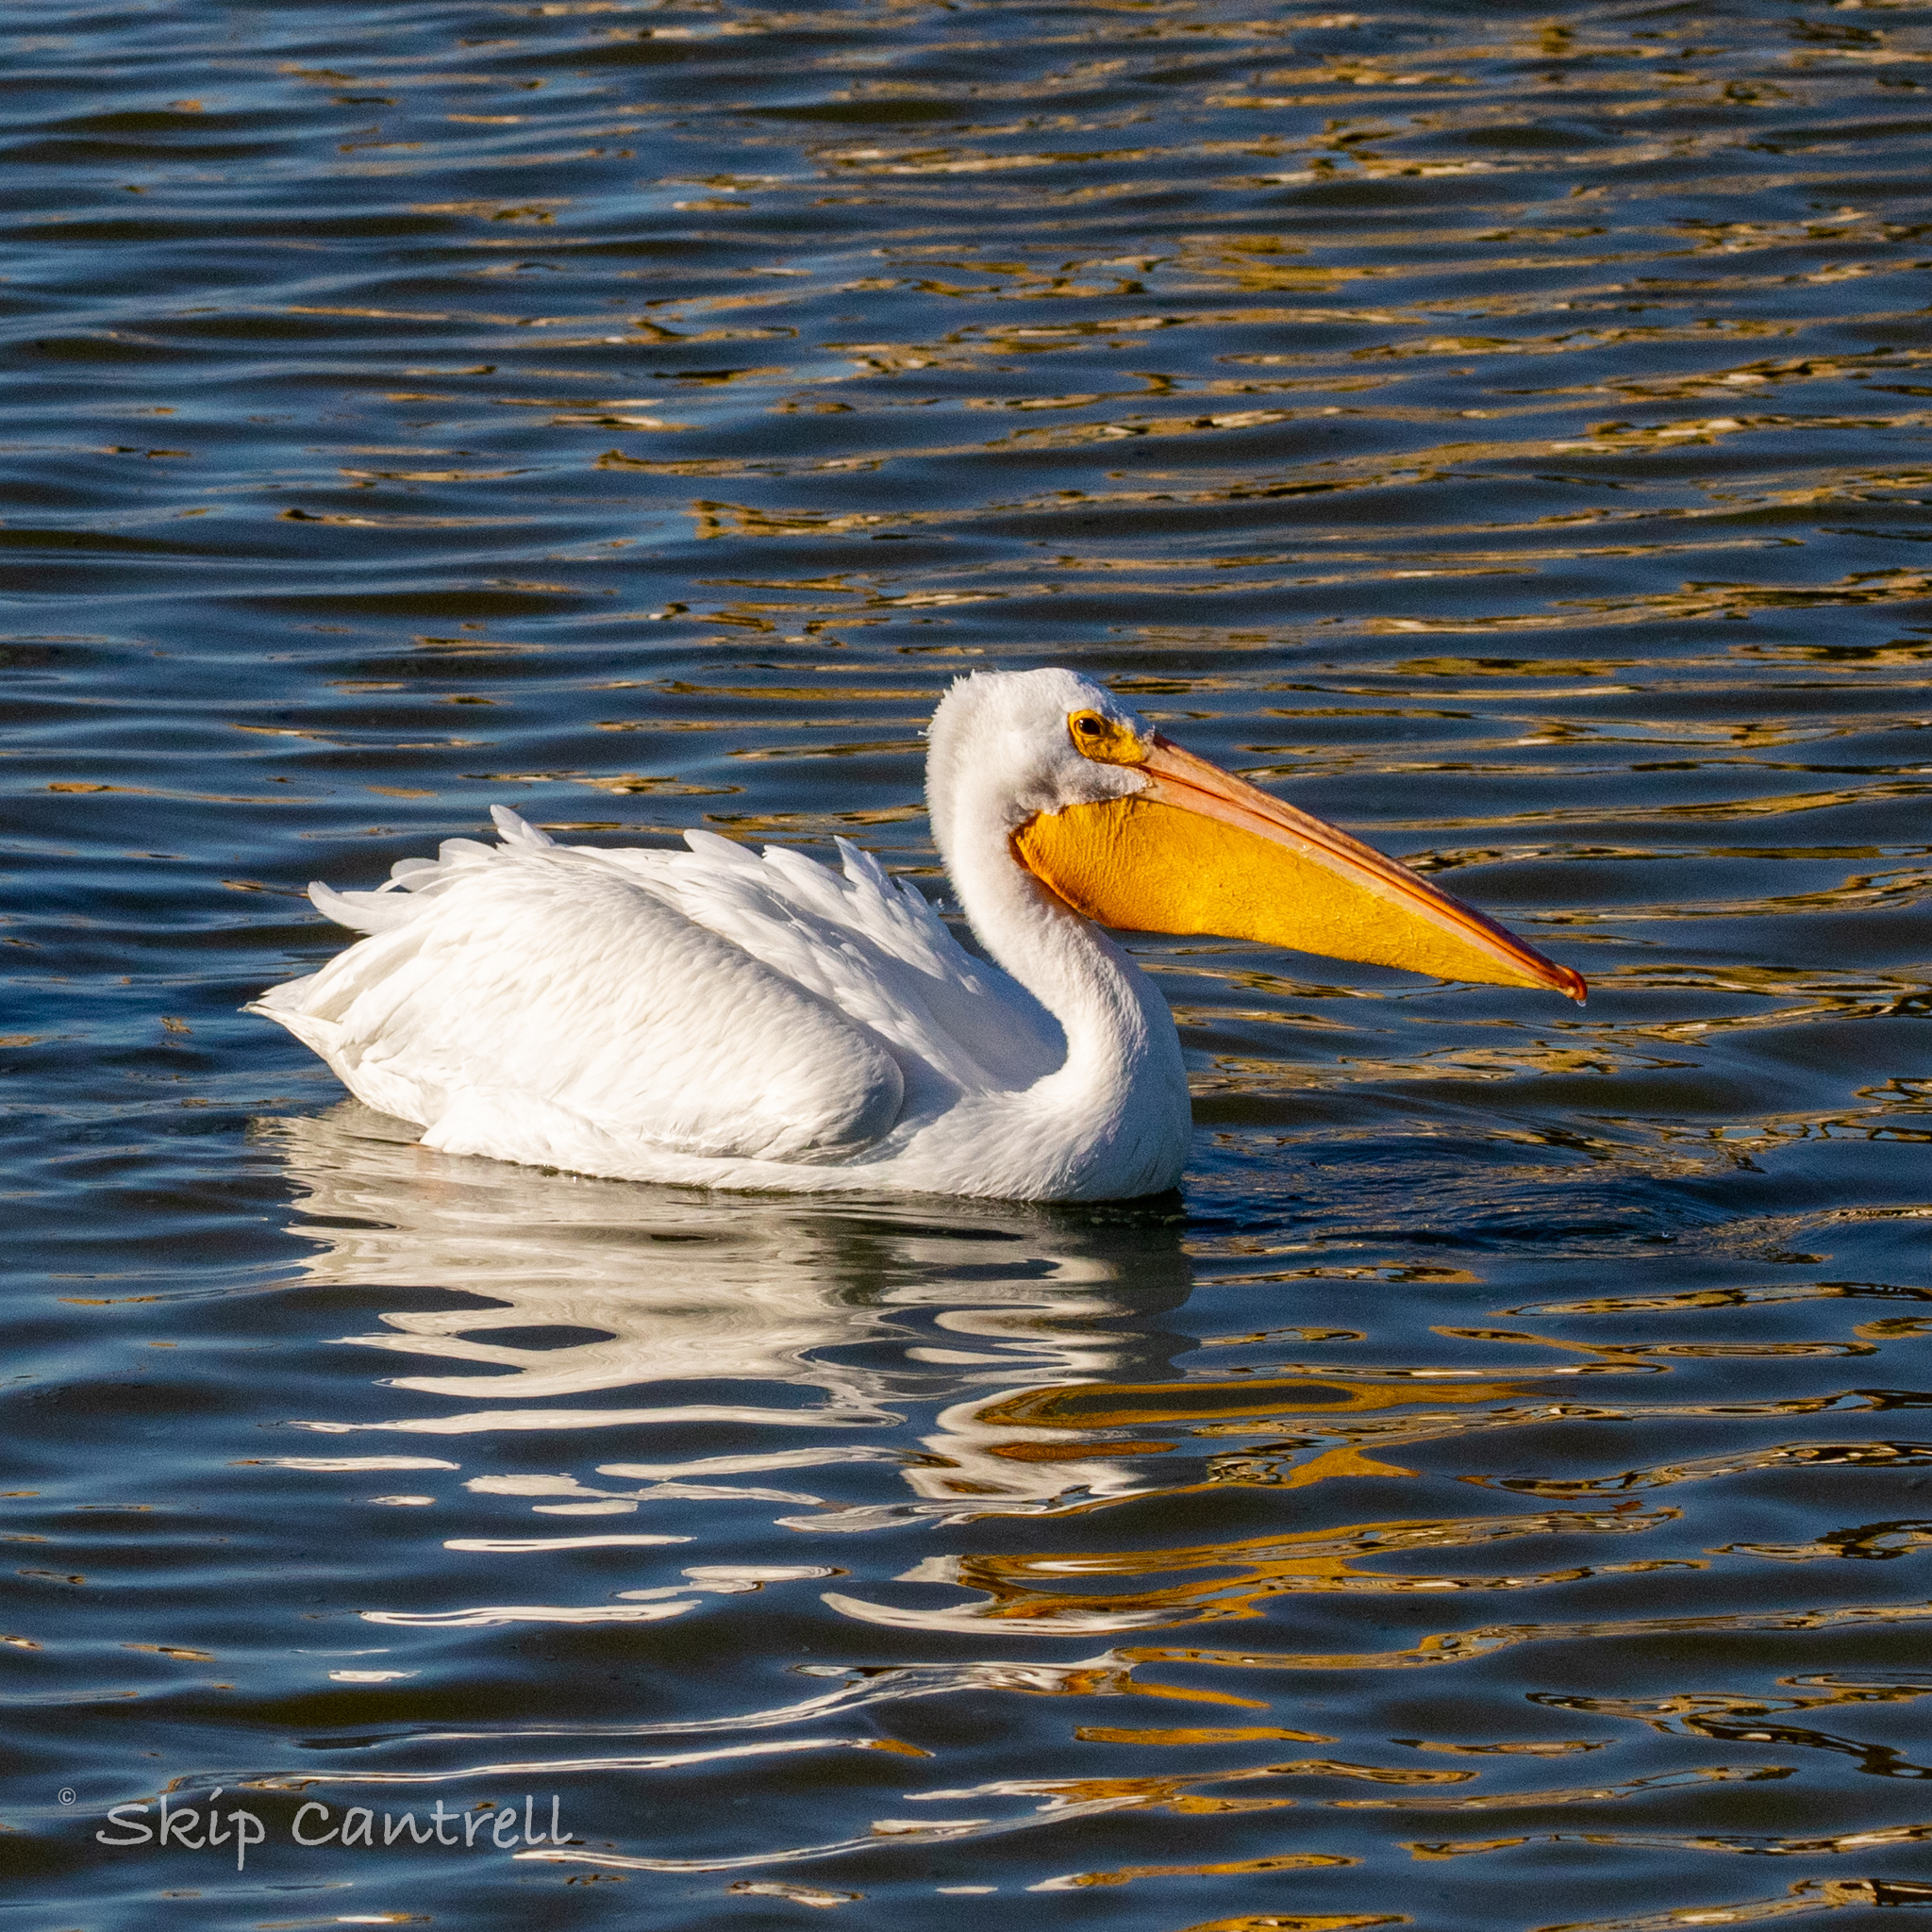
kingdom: Animalia
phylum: Chordata
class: Aves
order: Pelecaniformes
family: Pelecanidae
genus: Pelecanus
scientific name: Pelecanus erythrorhynchos
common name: American white pelican
